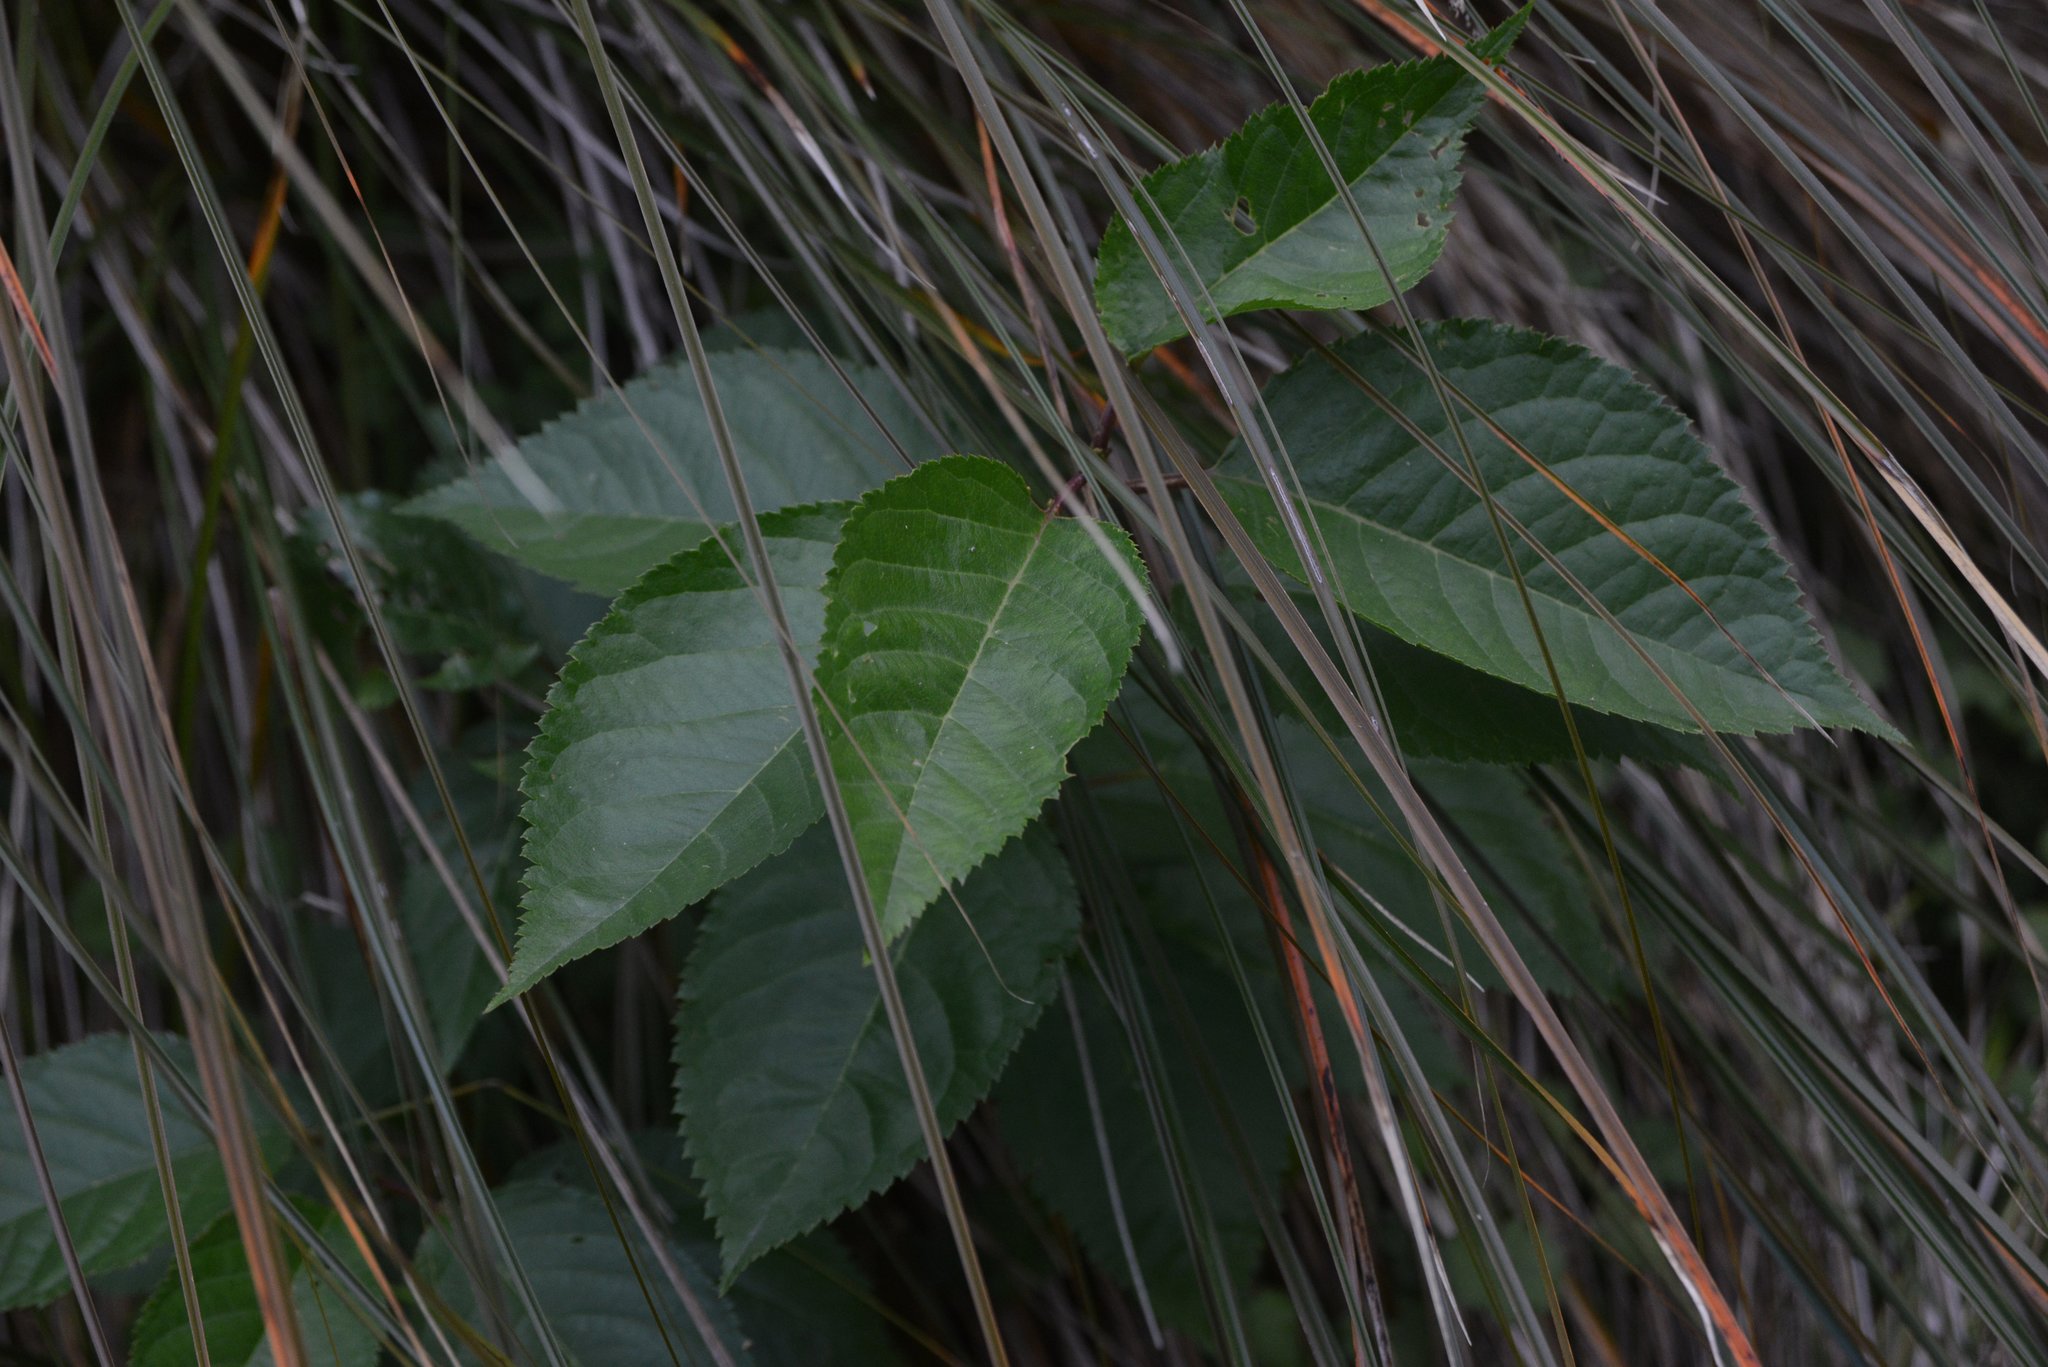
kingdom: Plantae
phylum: Tracheophyta
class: Magnoliopsida
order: Rosales
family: Rosaceae
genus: Prunus
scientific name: Prunus avium
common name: Sweet cherry
